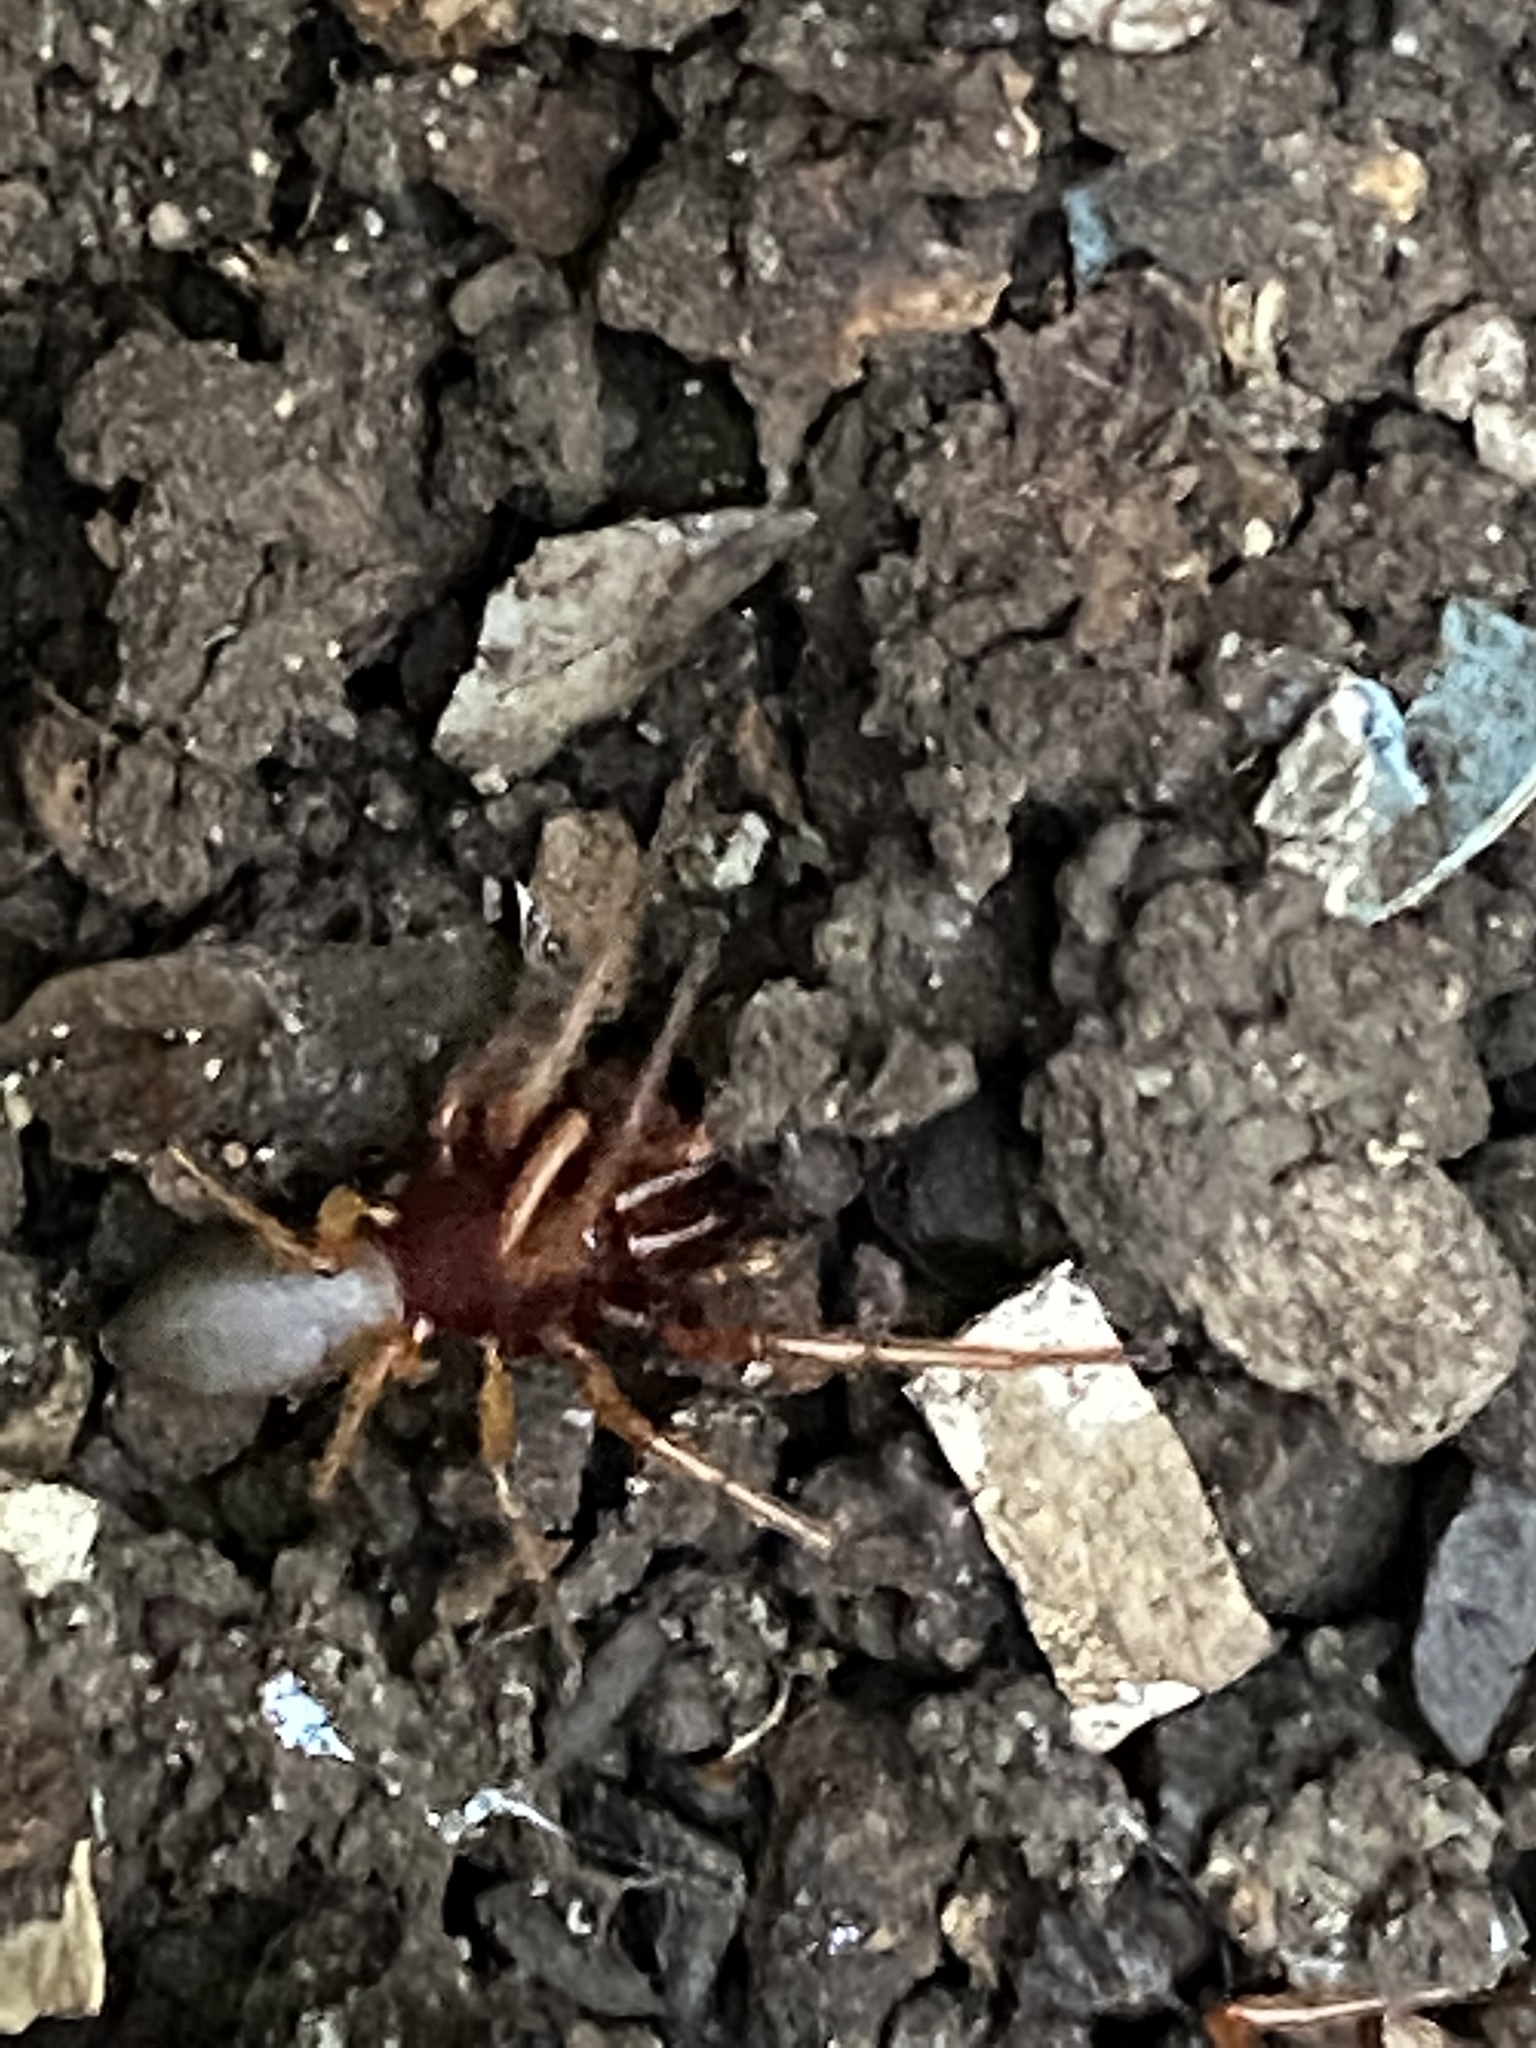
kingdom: Animalia
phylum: Arthropoda
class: Arachnida
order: Araneae
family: Dysderidae
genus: Dysdera
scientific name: Dysdera crocata
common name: Woodlouse spider
